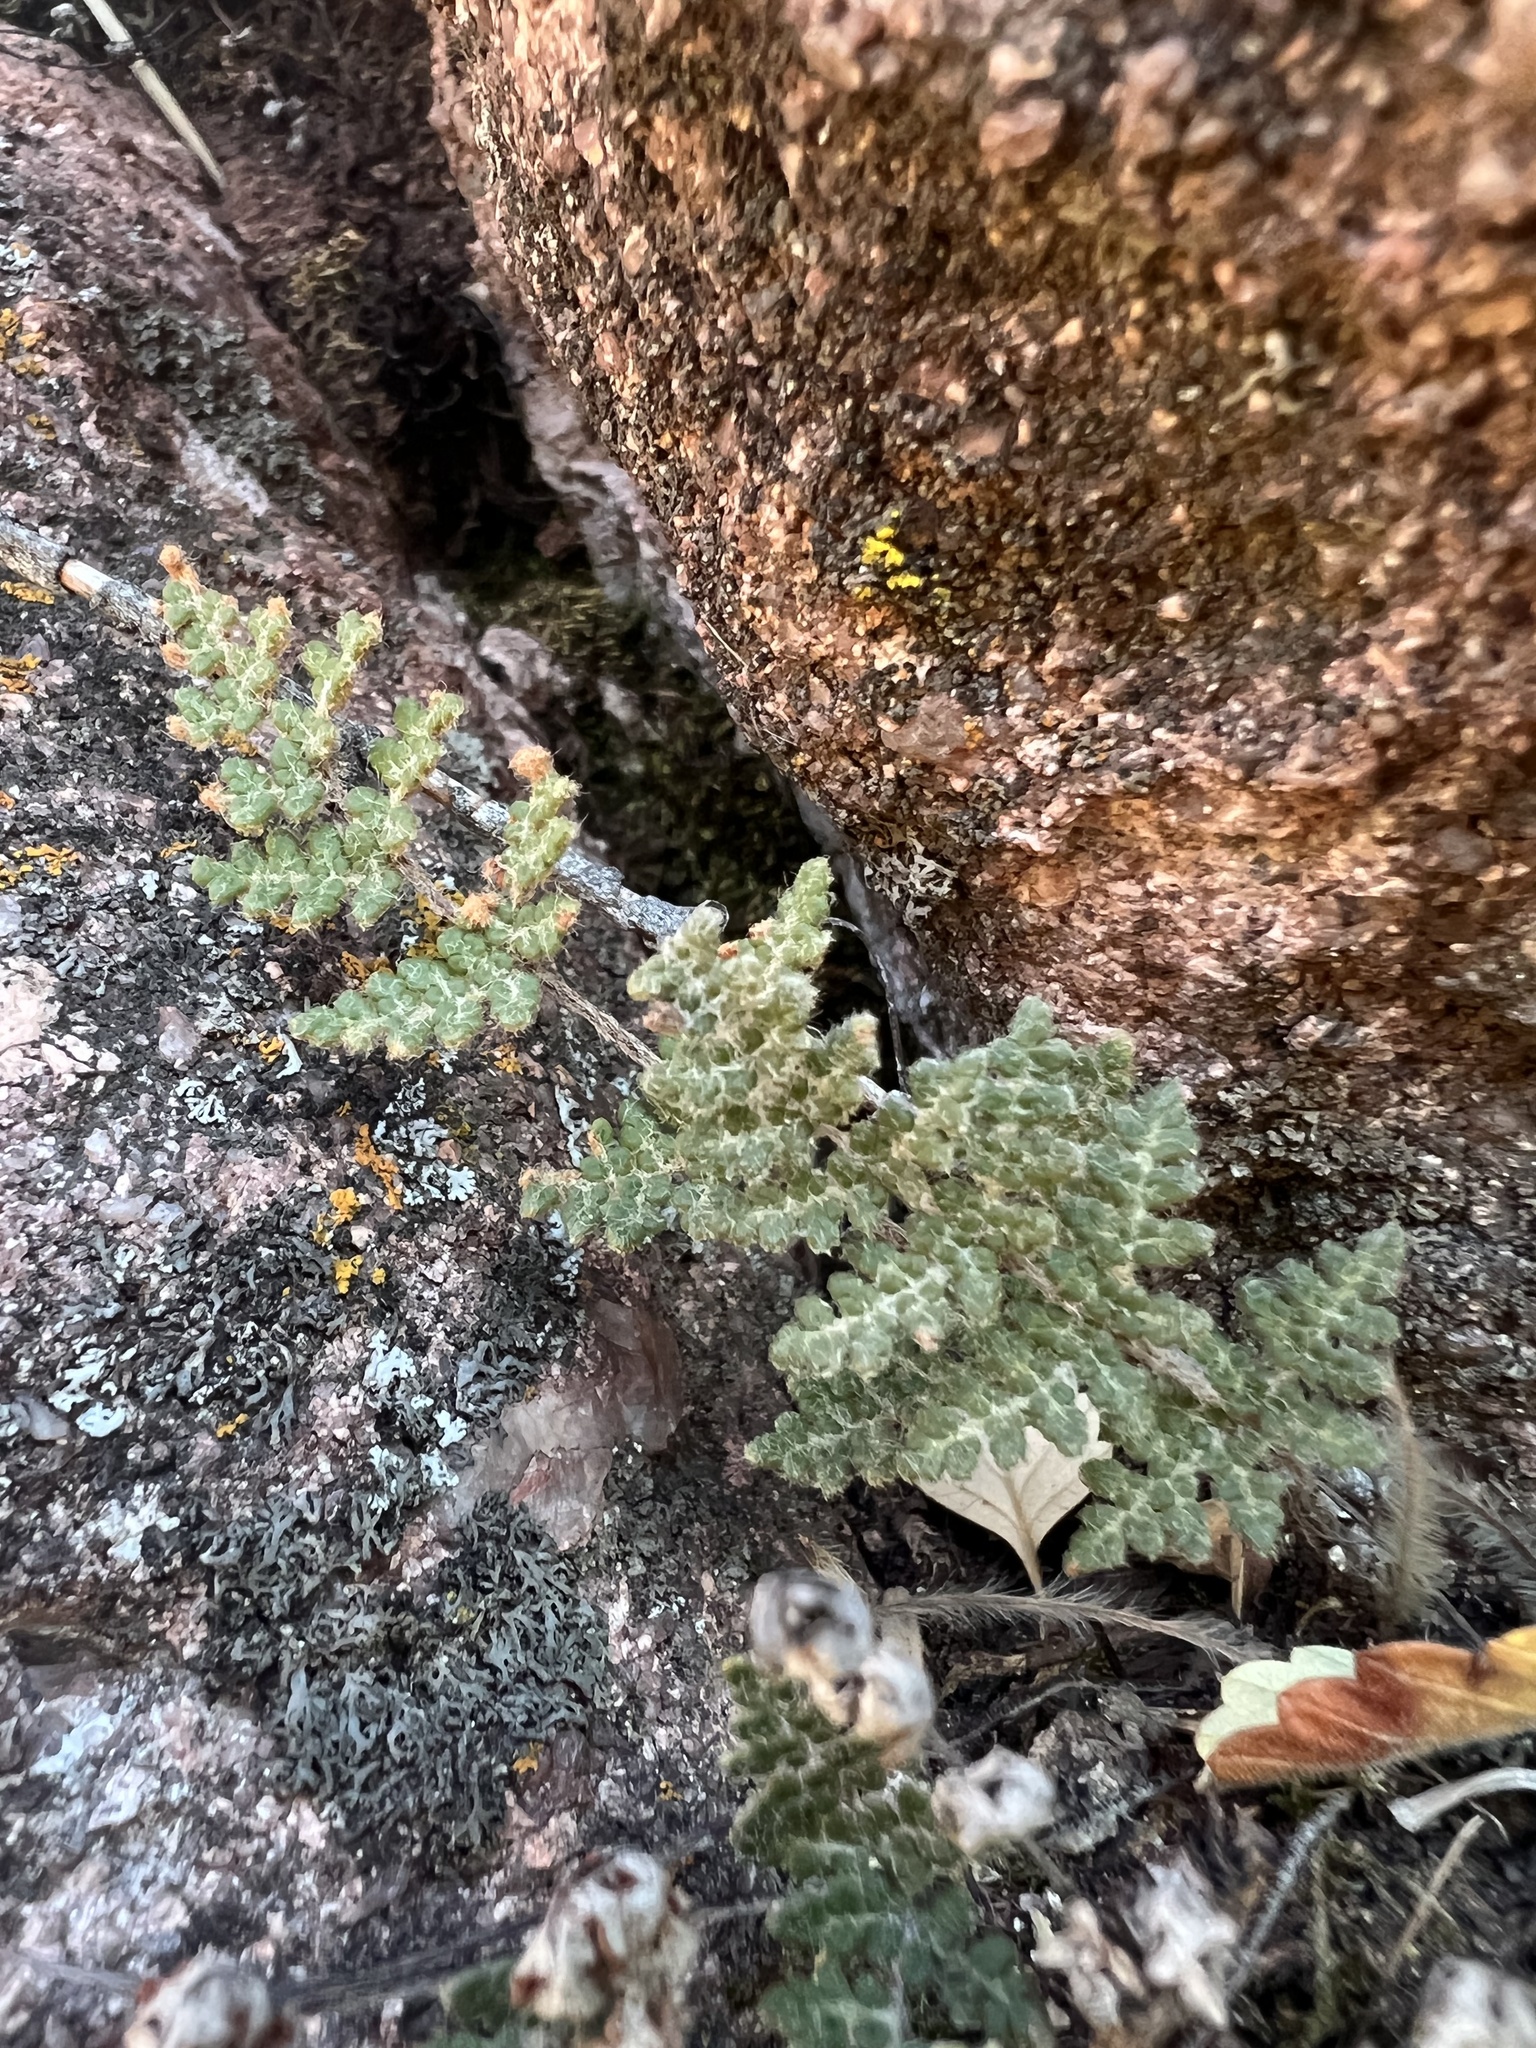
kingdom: Plantae
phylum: Tracheophyta
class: Polypodiopsida
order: Polypodiales
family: Pteridaceae
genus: Myriopteris
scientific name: Myriopteris gracilis
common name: Fee's lip fern
